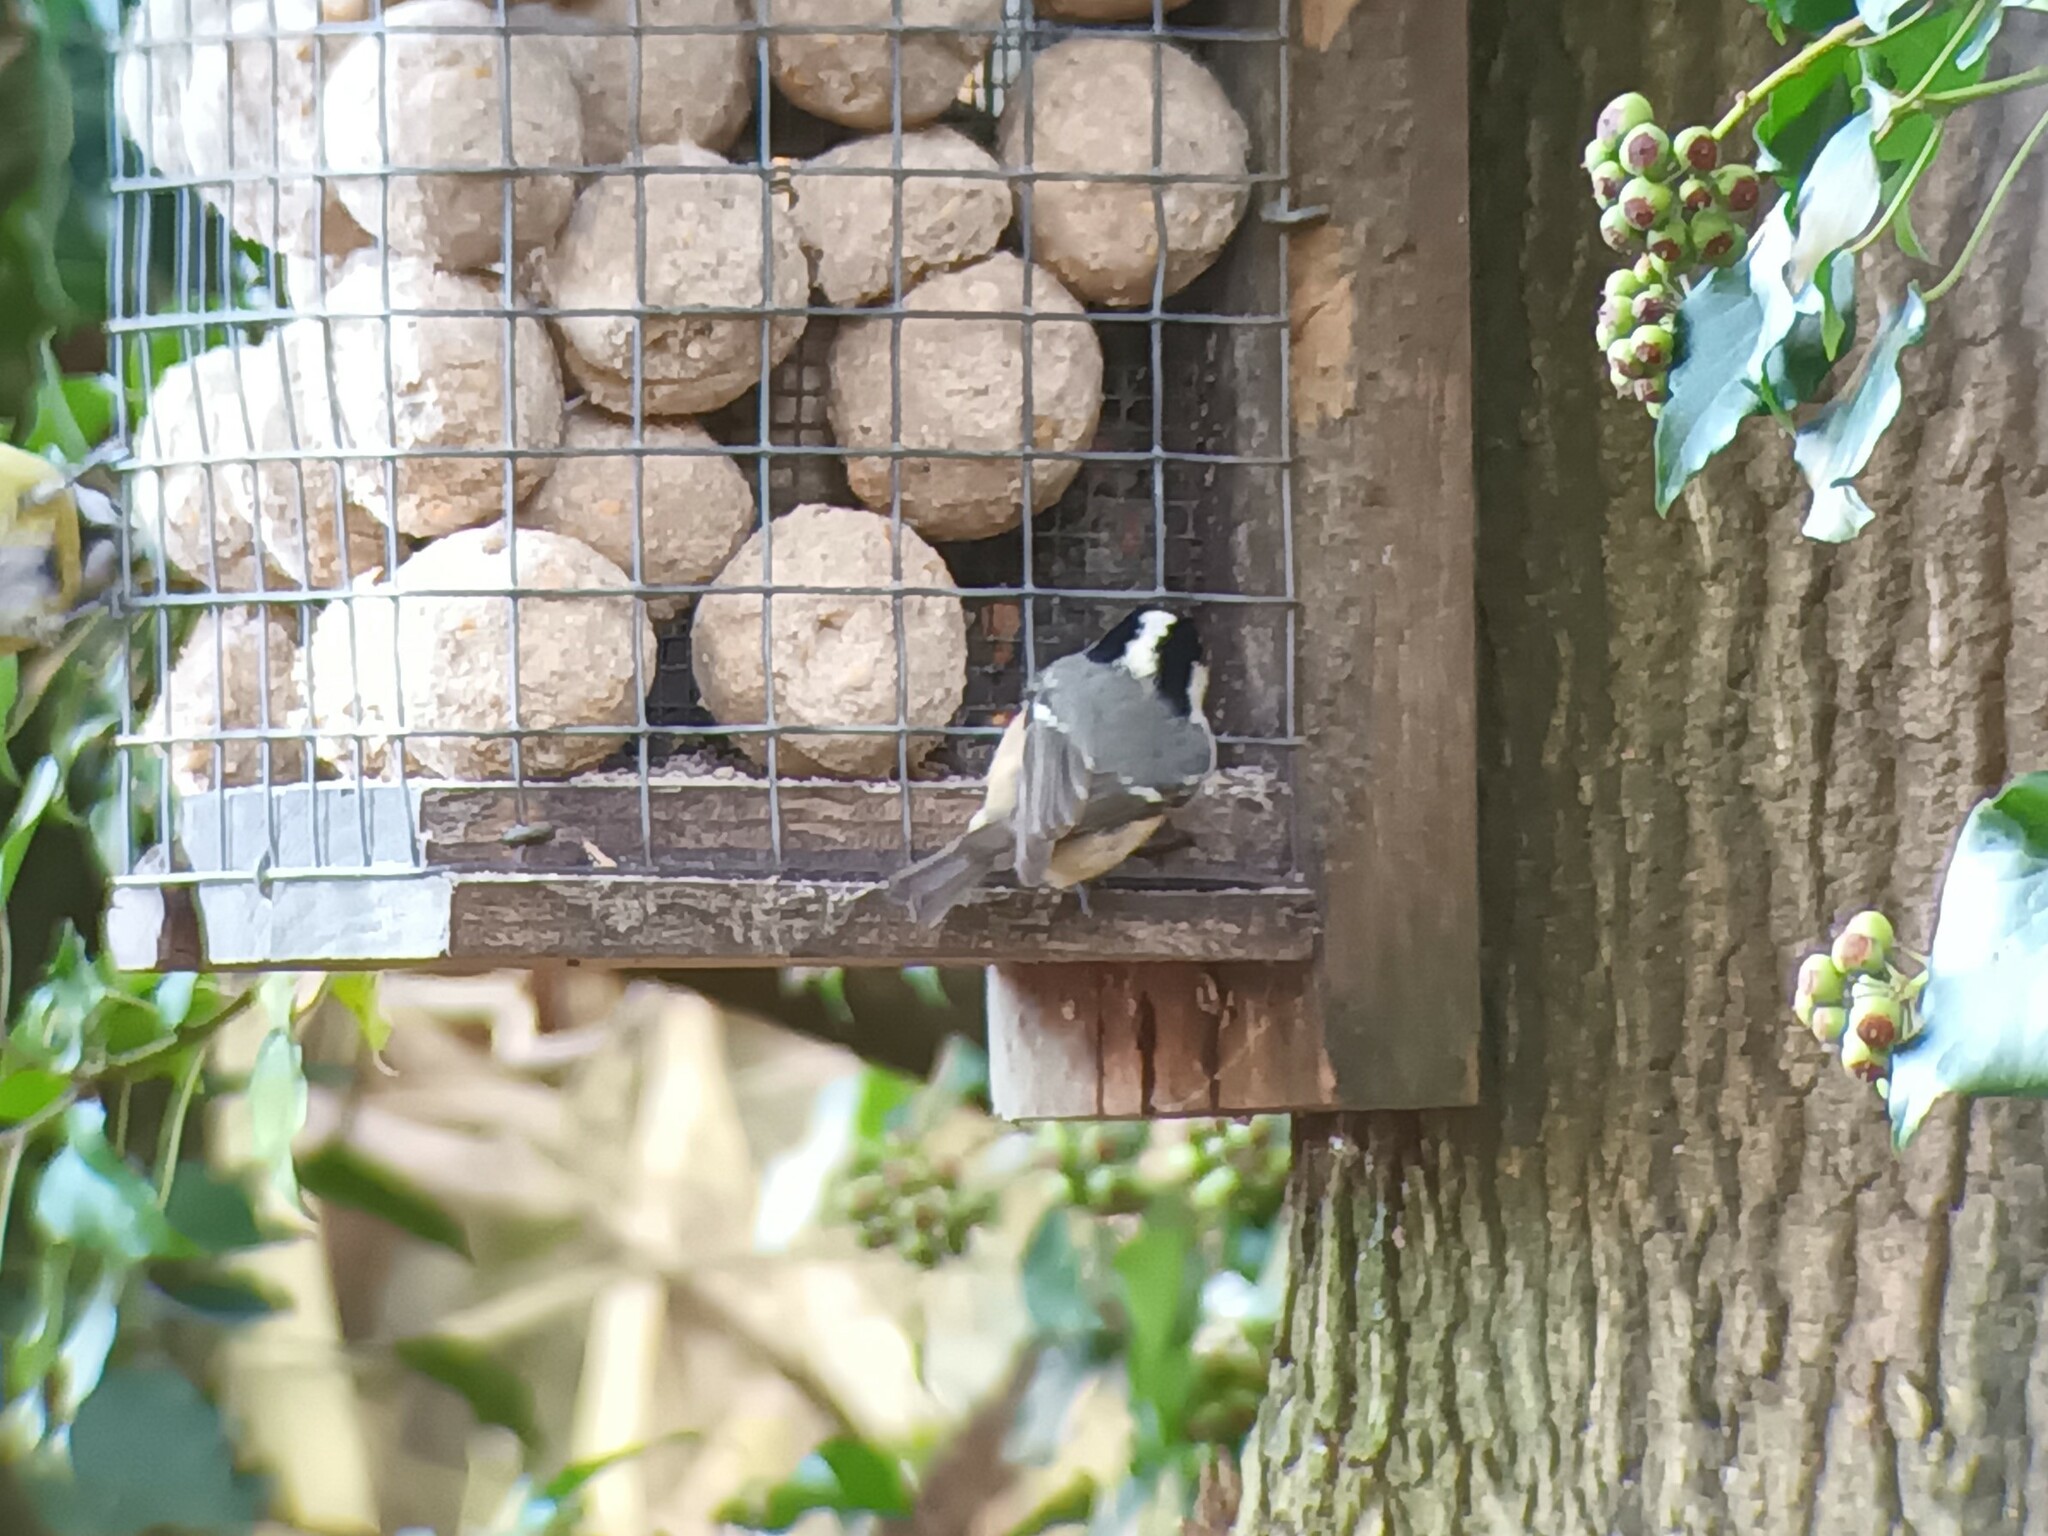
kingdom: Animalia
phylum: Chordata
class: Aves
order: Passeriformes
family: Paridae
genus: Periparus
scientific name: Periparus ater
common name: Coal tit
